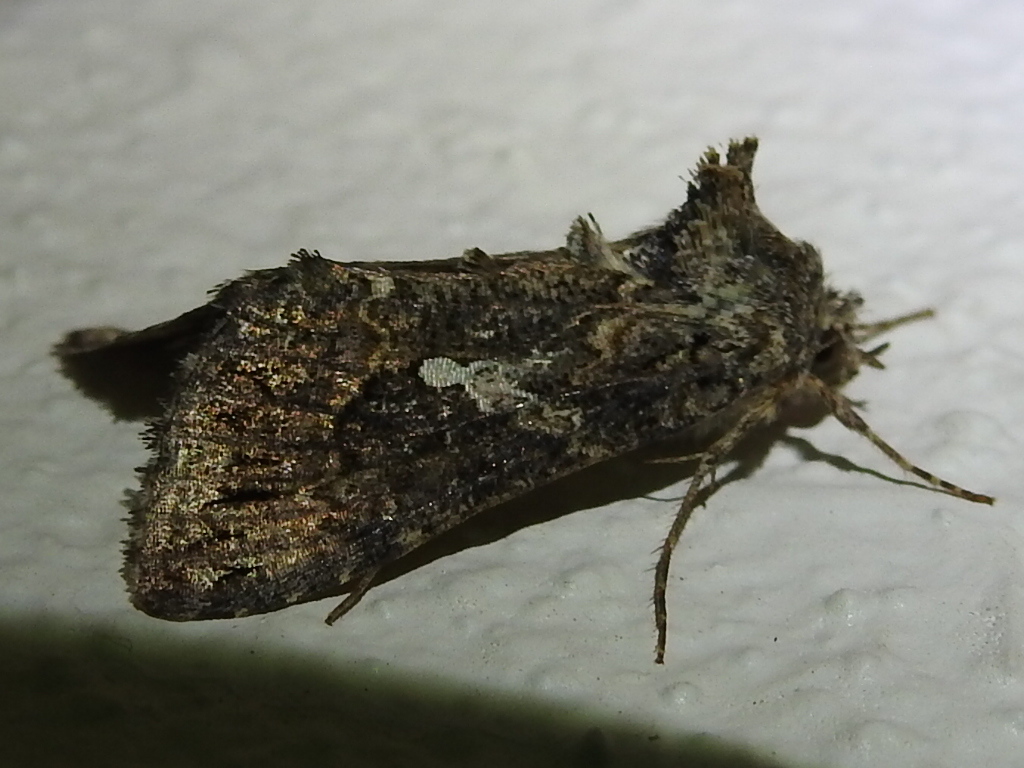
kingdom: Animalia
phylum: Arthropoda
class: Insecta
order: Lepidoptera
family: Noctuidae
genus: Trichoplusia
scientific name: Trichoplusia ni
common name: Ni moth
